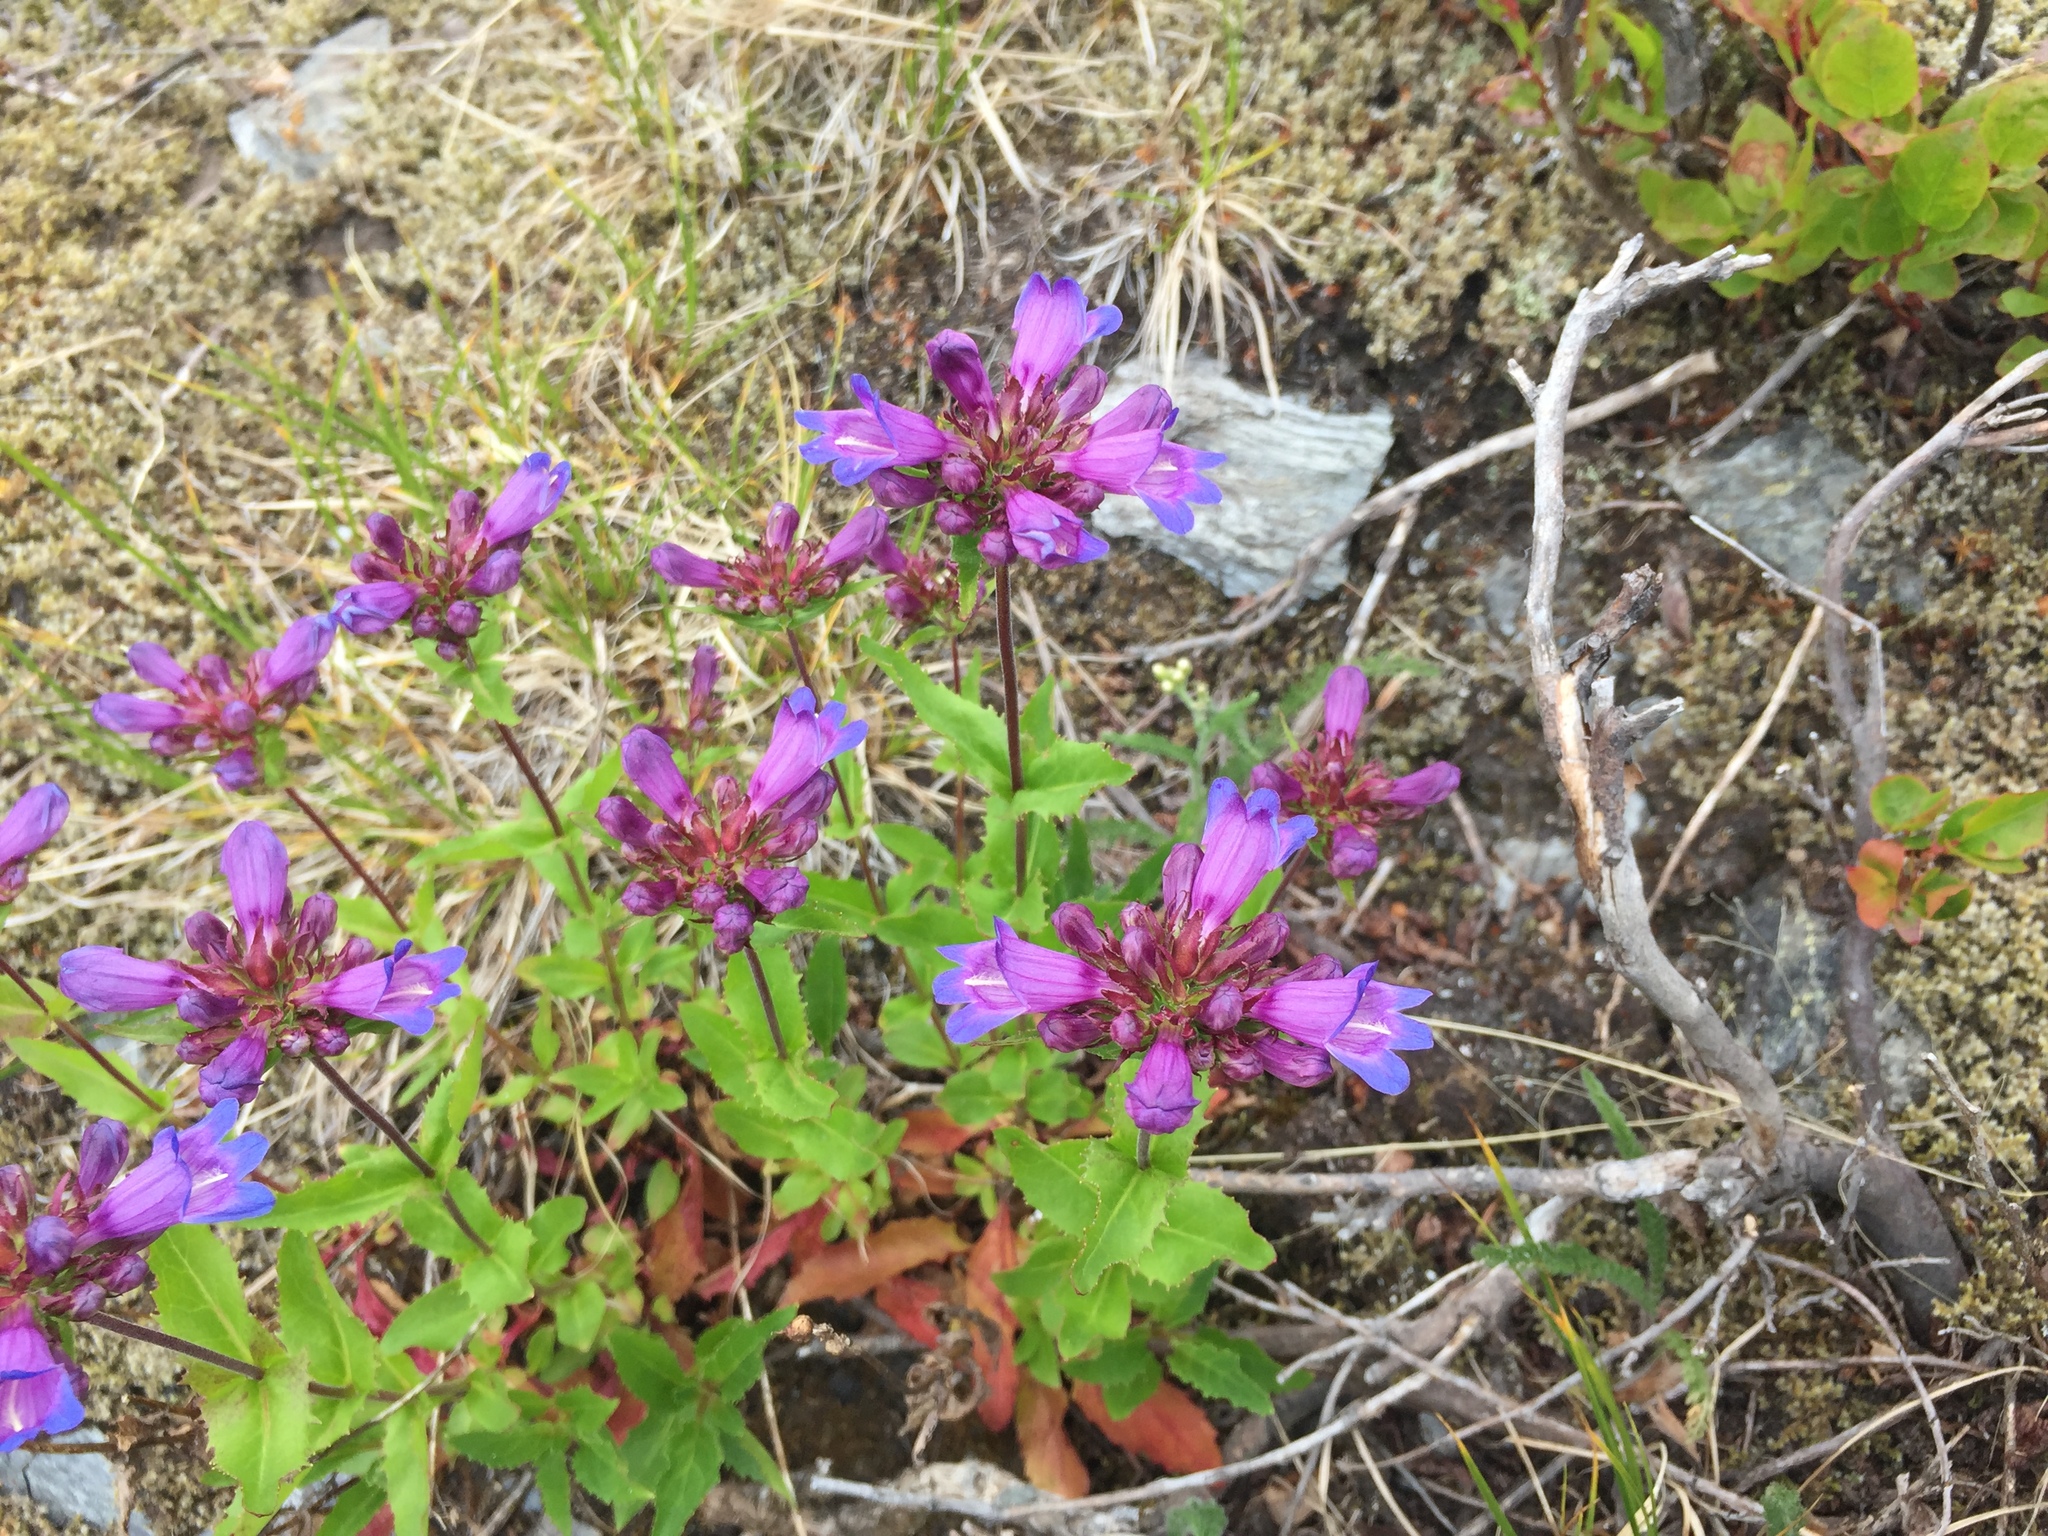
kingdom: Plantae
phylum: Tracheophyta
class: Magnoliopsida
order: Lamiales
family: Plantaginaceae
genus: Penstemon
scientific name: Penstemon serrulatus
